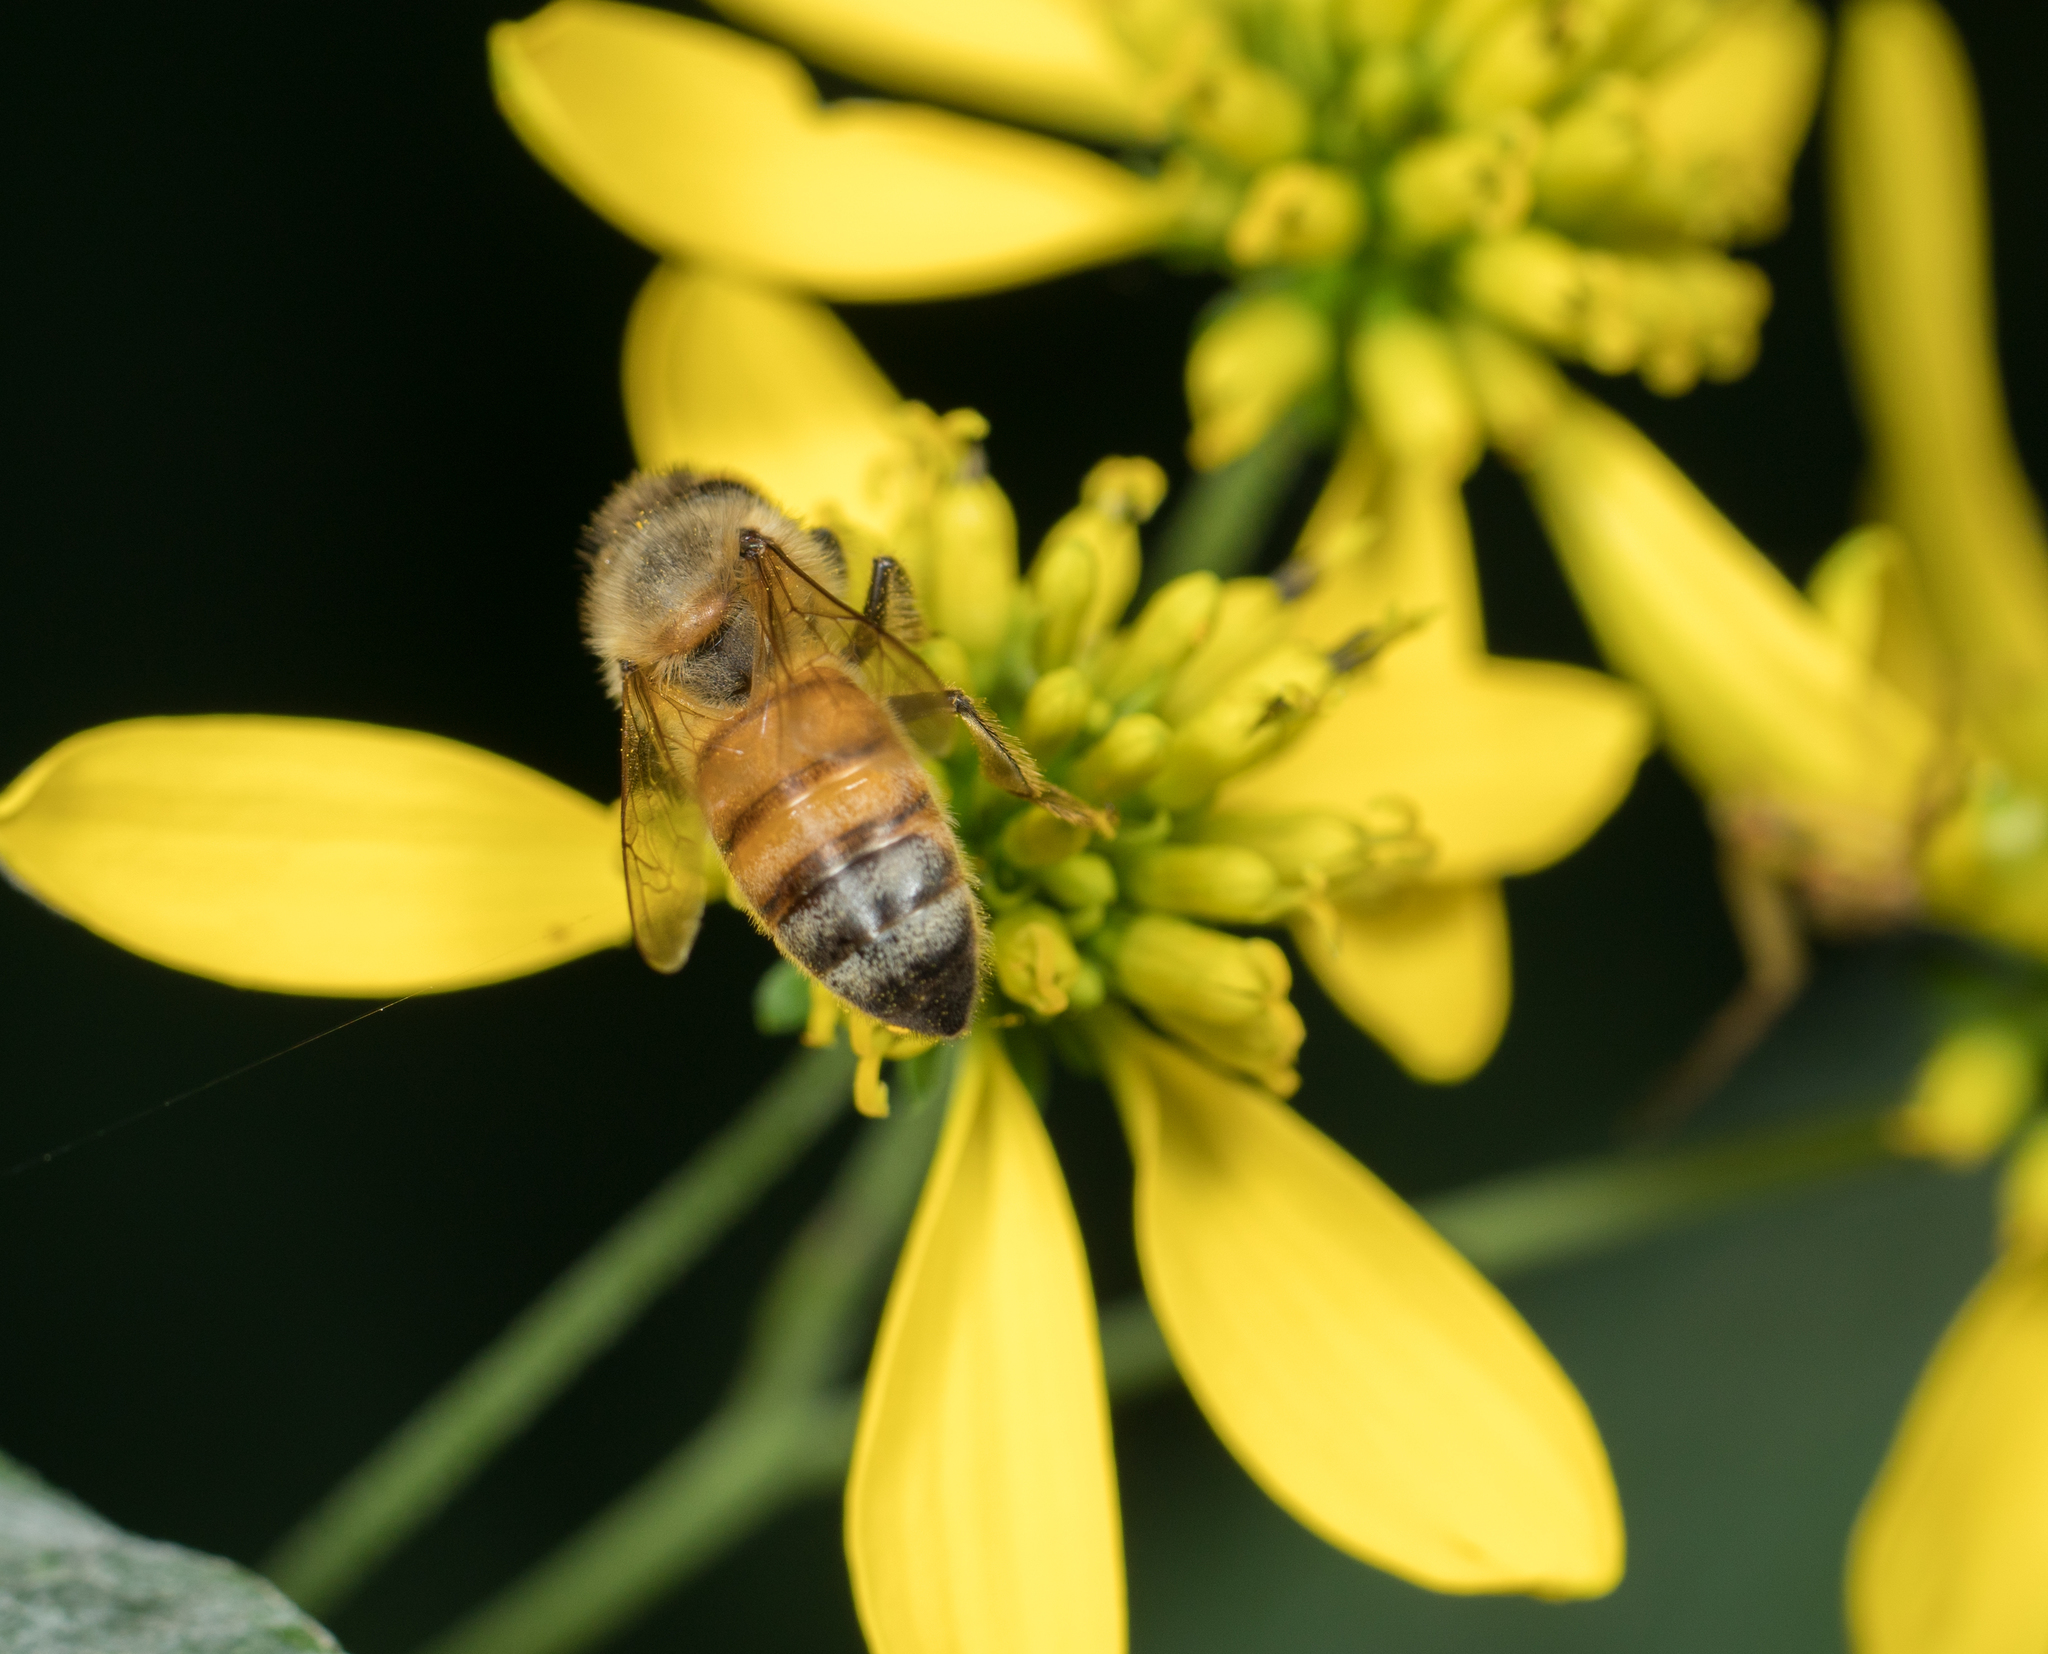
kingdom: Animalia
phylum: Arthropoda
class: Insecta
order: Hymenoptera
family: Apidae
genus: Apis
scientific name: Apis mellifera
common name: Honey bee
